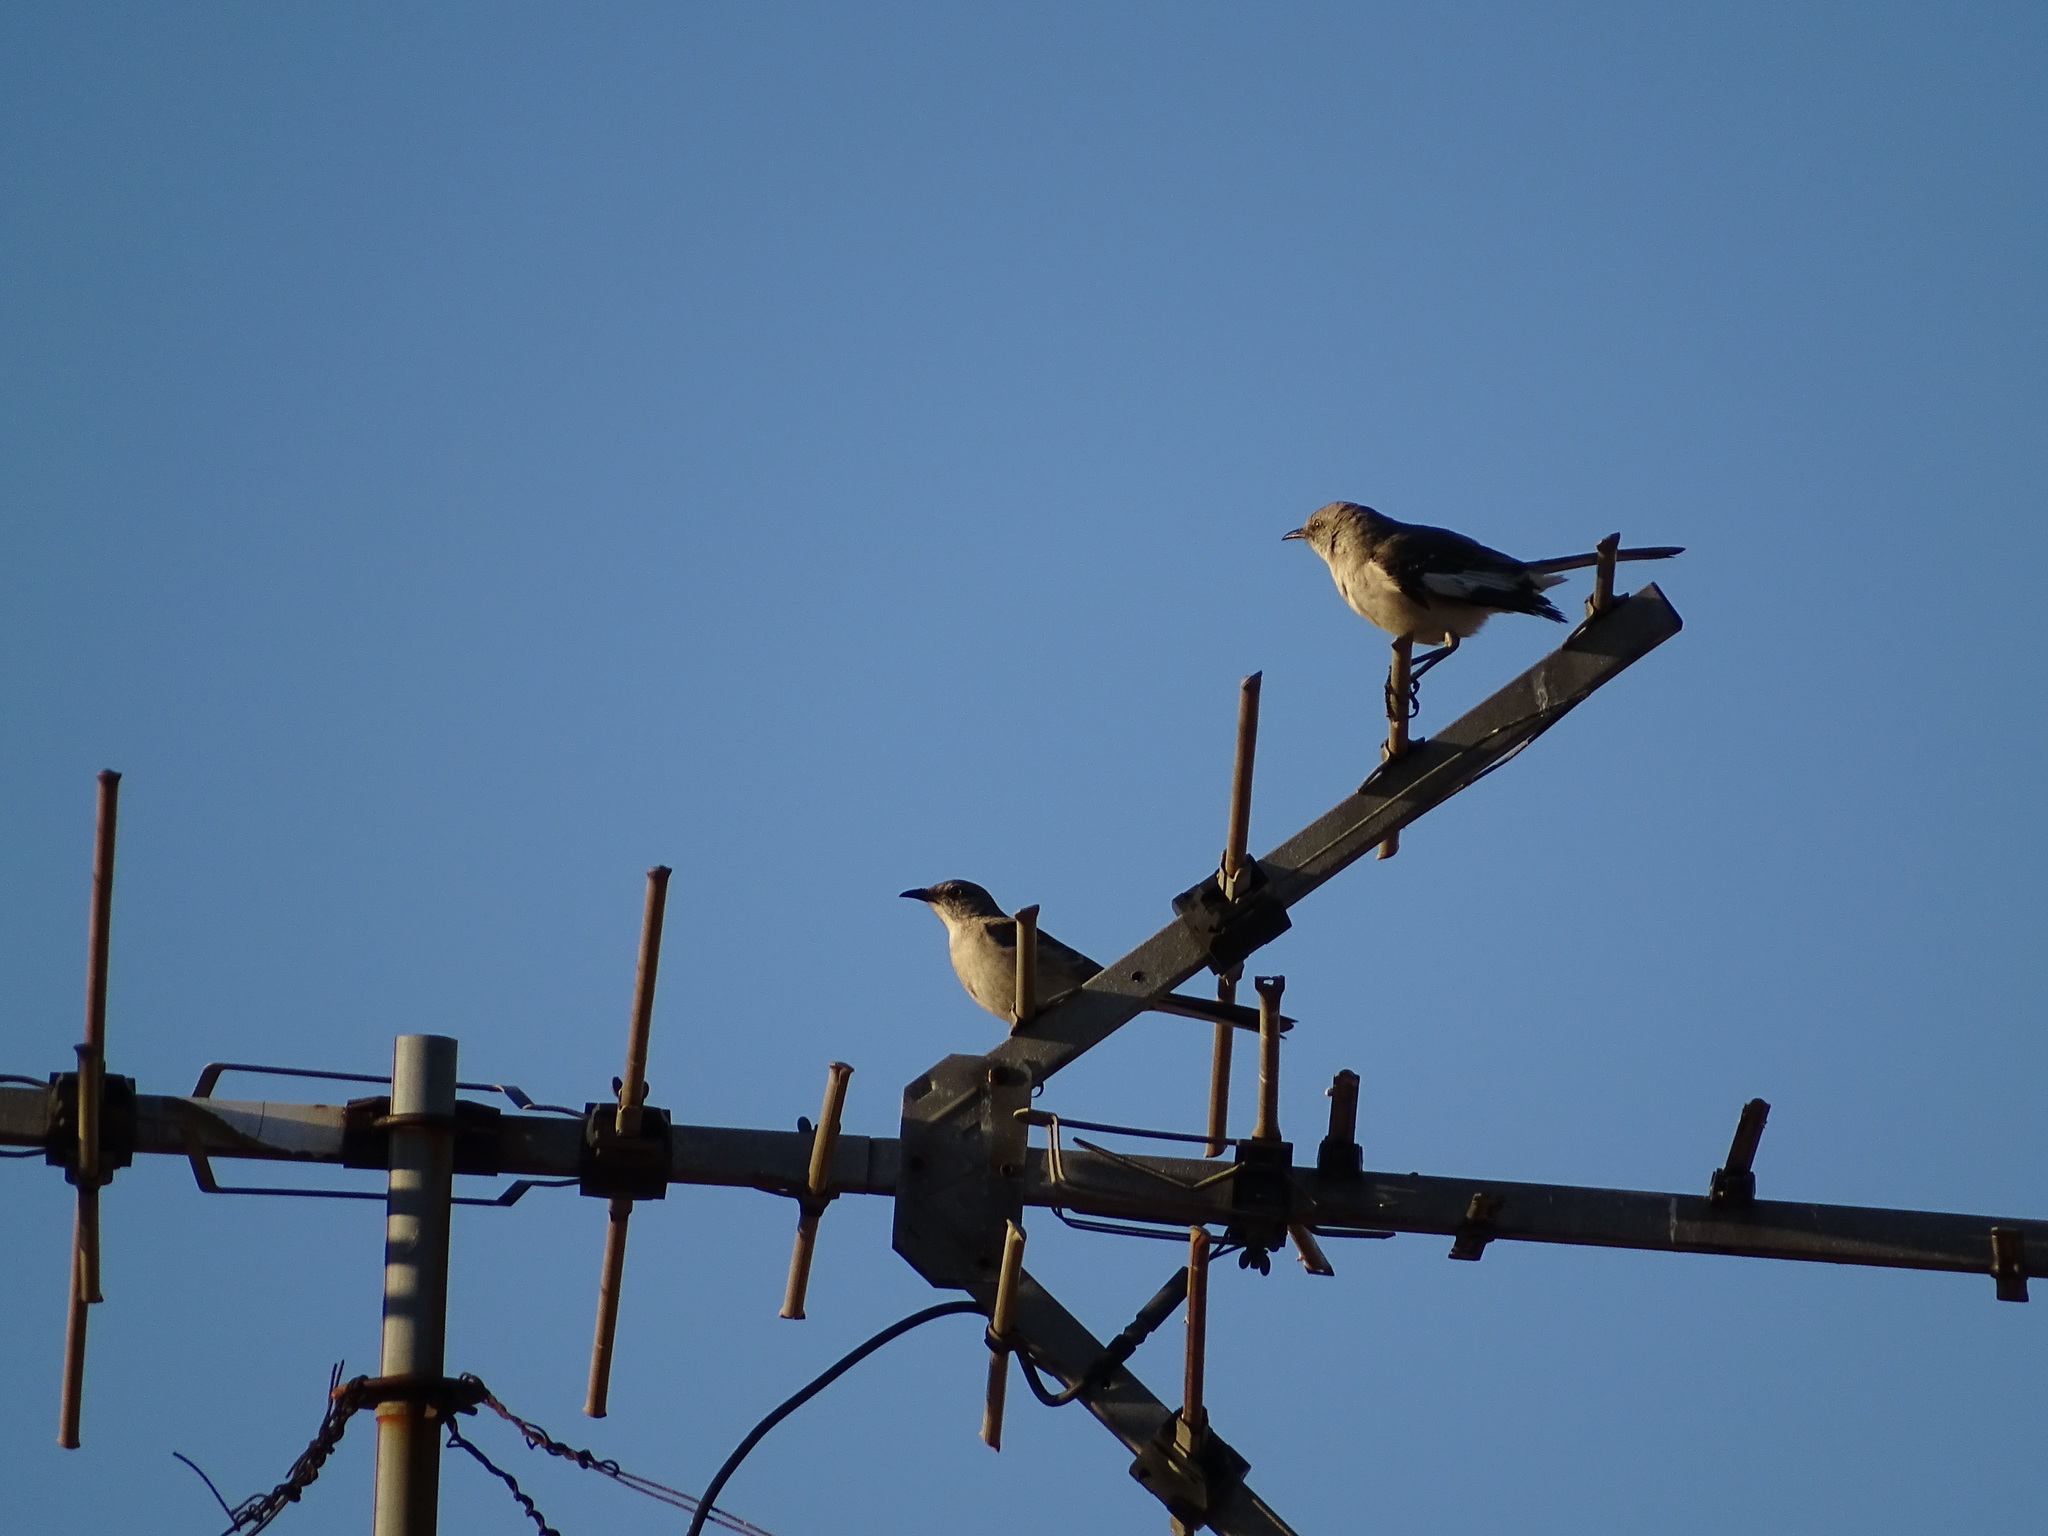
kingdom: Animalia
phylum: Chordata
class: Aves
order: Passeriformes
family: Mimidae
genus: Mimus
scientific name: Mimus polyglottos
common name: Northern mockingbird
